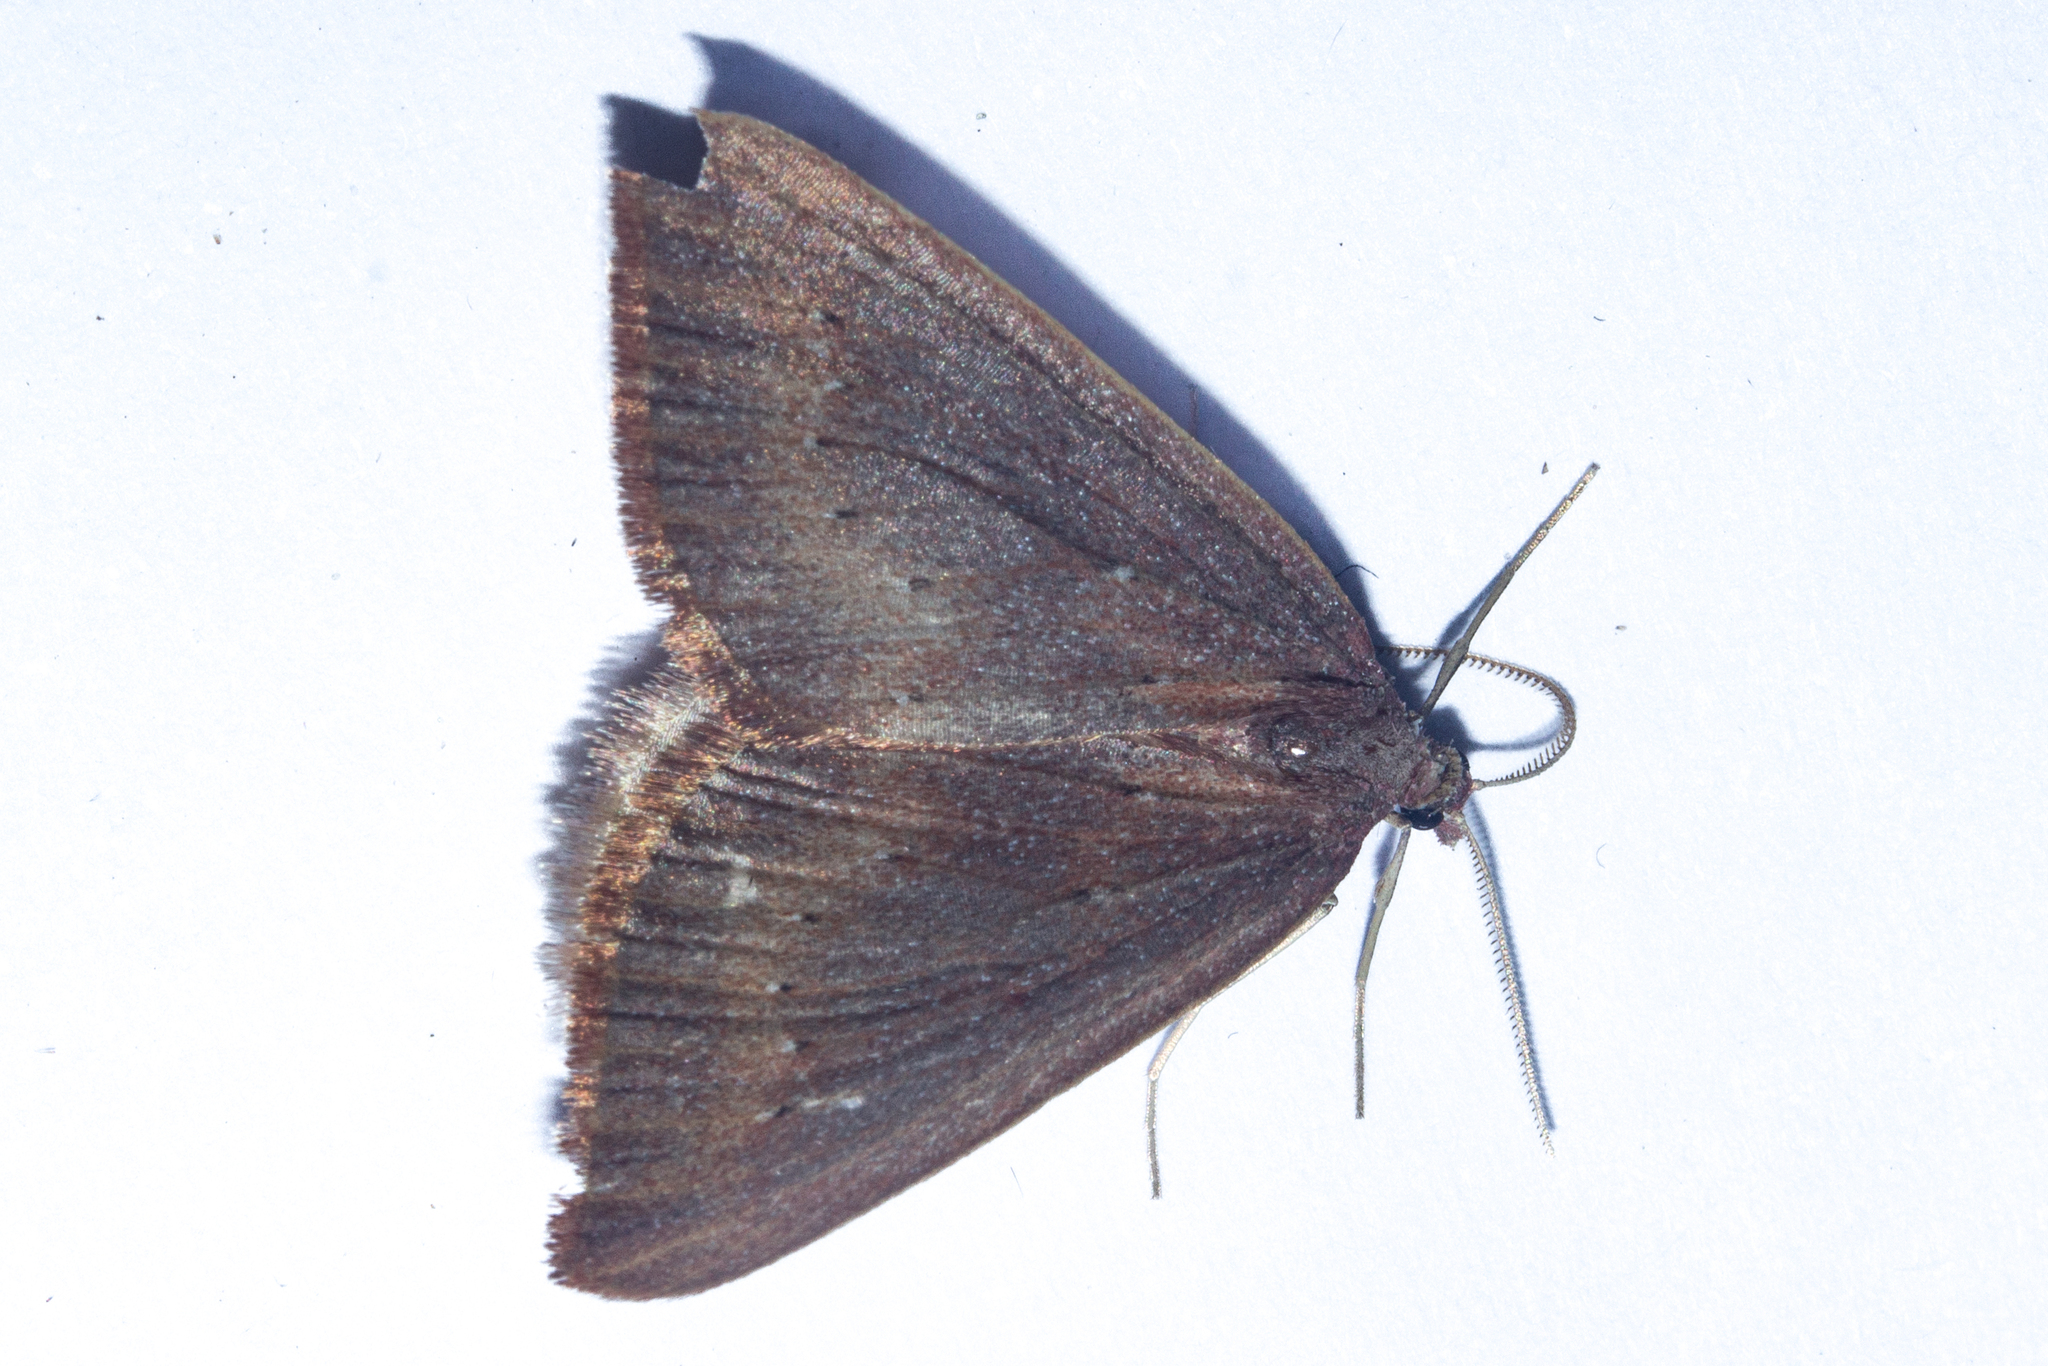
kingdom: Animalia
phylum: Arthropoda
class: Insecta
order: Lepidoptera
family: Geometridae
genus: Xanthorhoe
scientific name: Xanthorhoe occulta
